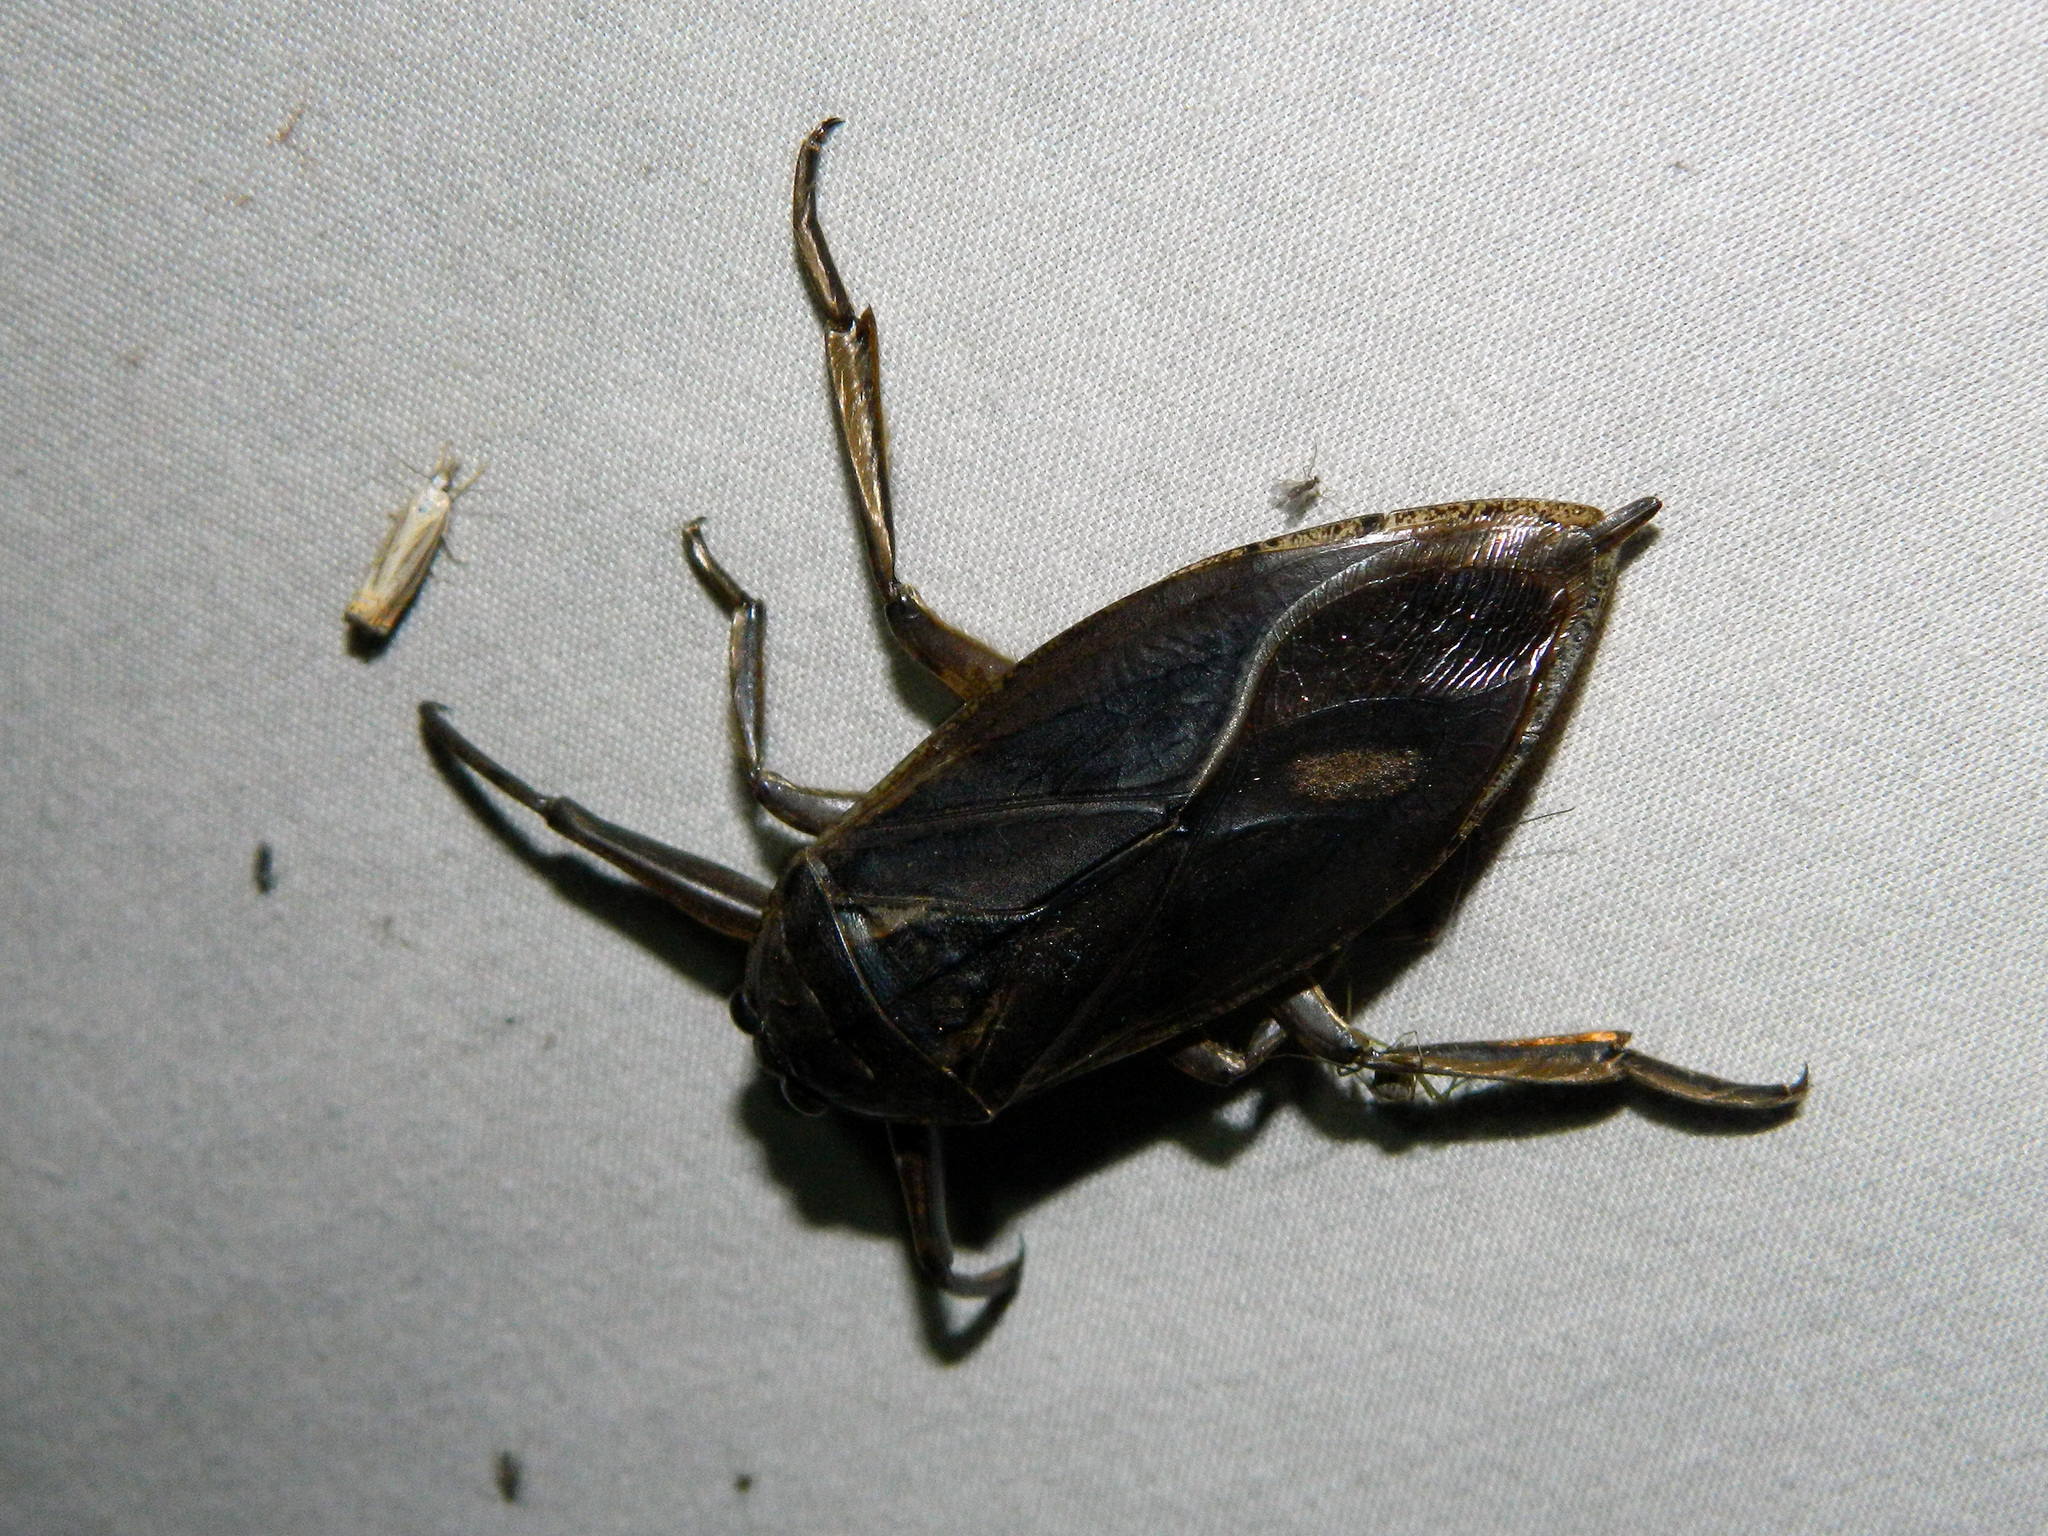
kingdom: Animalia
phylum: Arthropoda
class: Insecta
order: Hemiptera
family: Belostomatidae
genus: Lethocerus
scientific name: Lethocerus americanus
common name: Giant water bug
